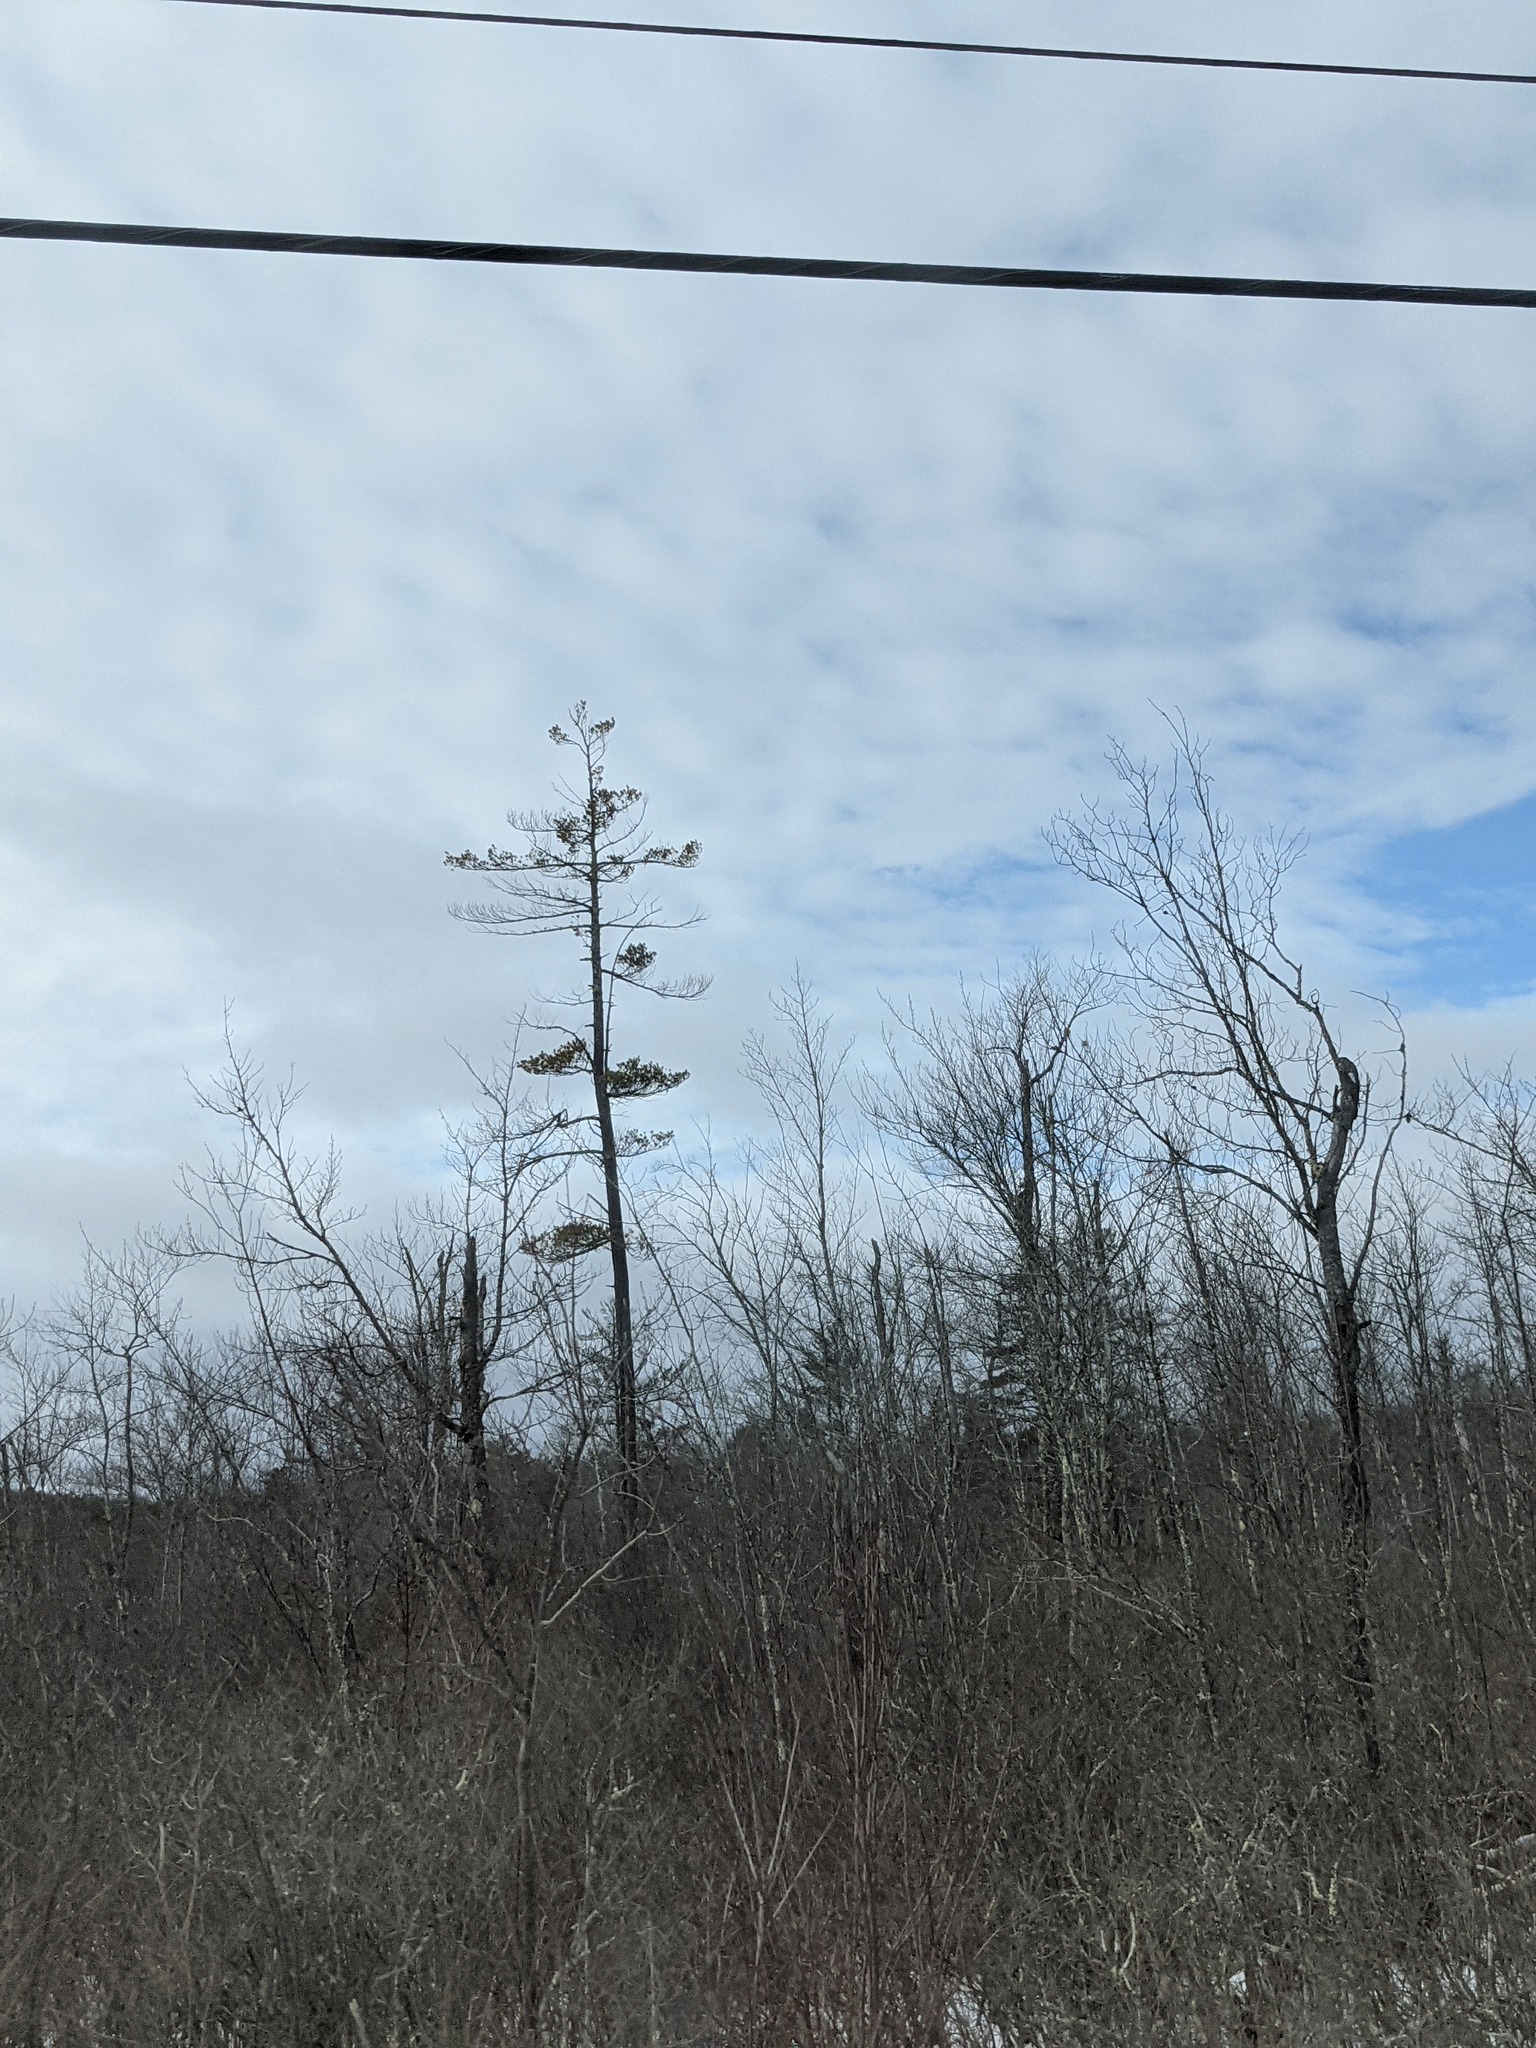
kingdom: Plantae
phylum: Tracheophyta
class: Pinopsida
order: Pinales
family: Pinaceae
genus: Pinus
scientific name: Pinus strobus
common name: Weymouth pine
